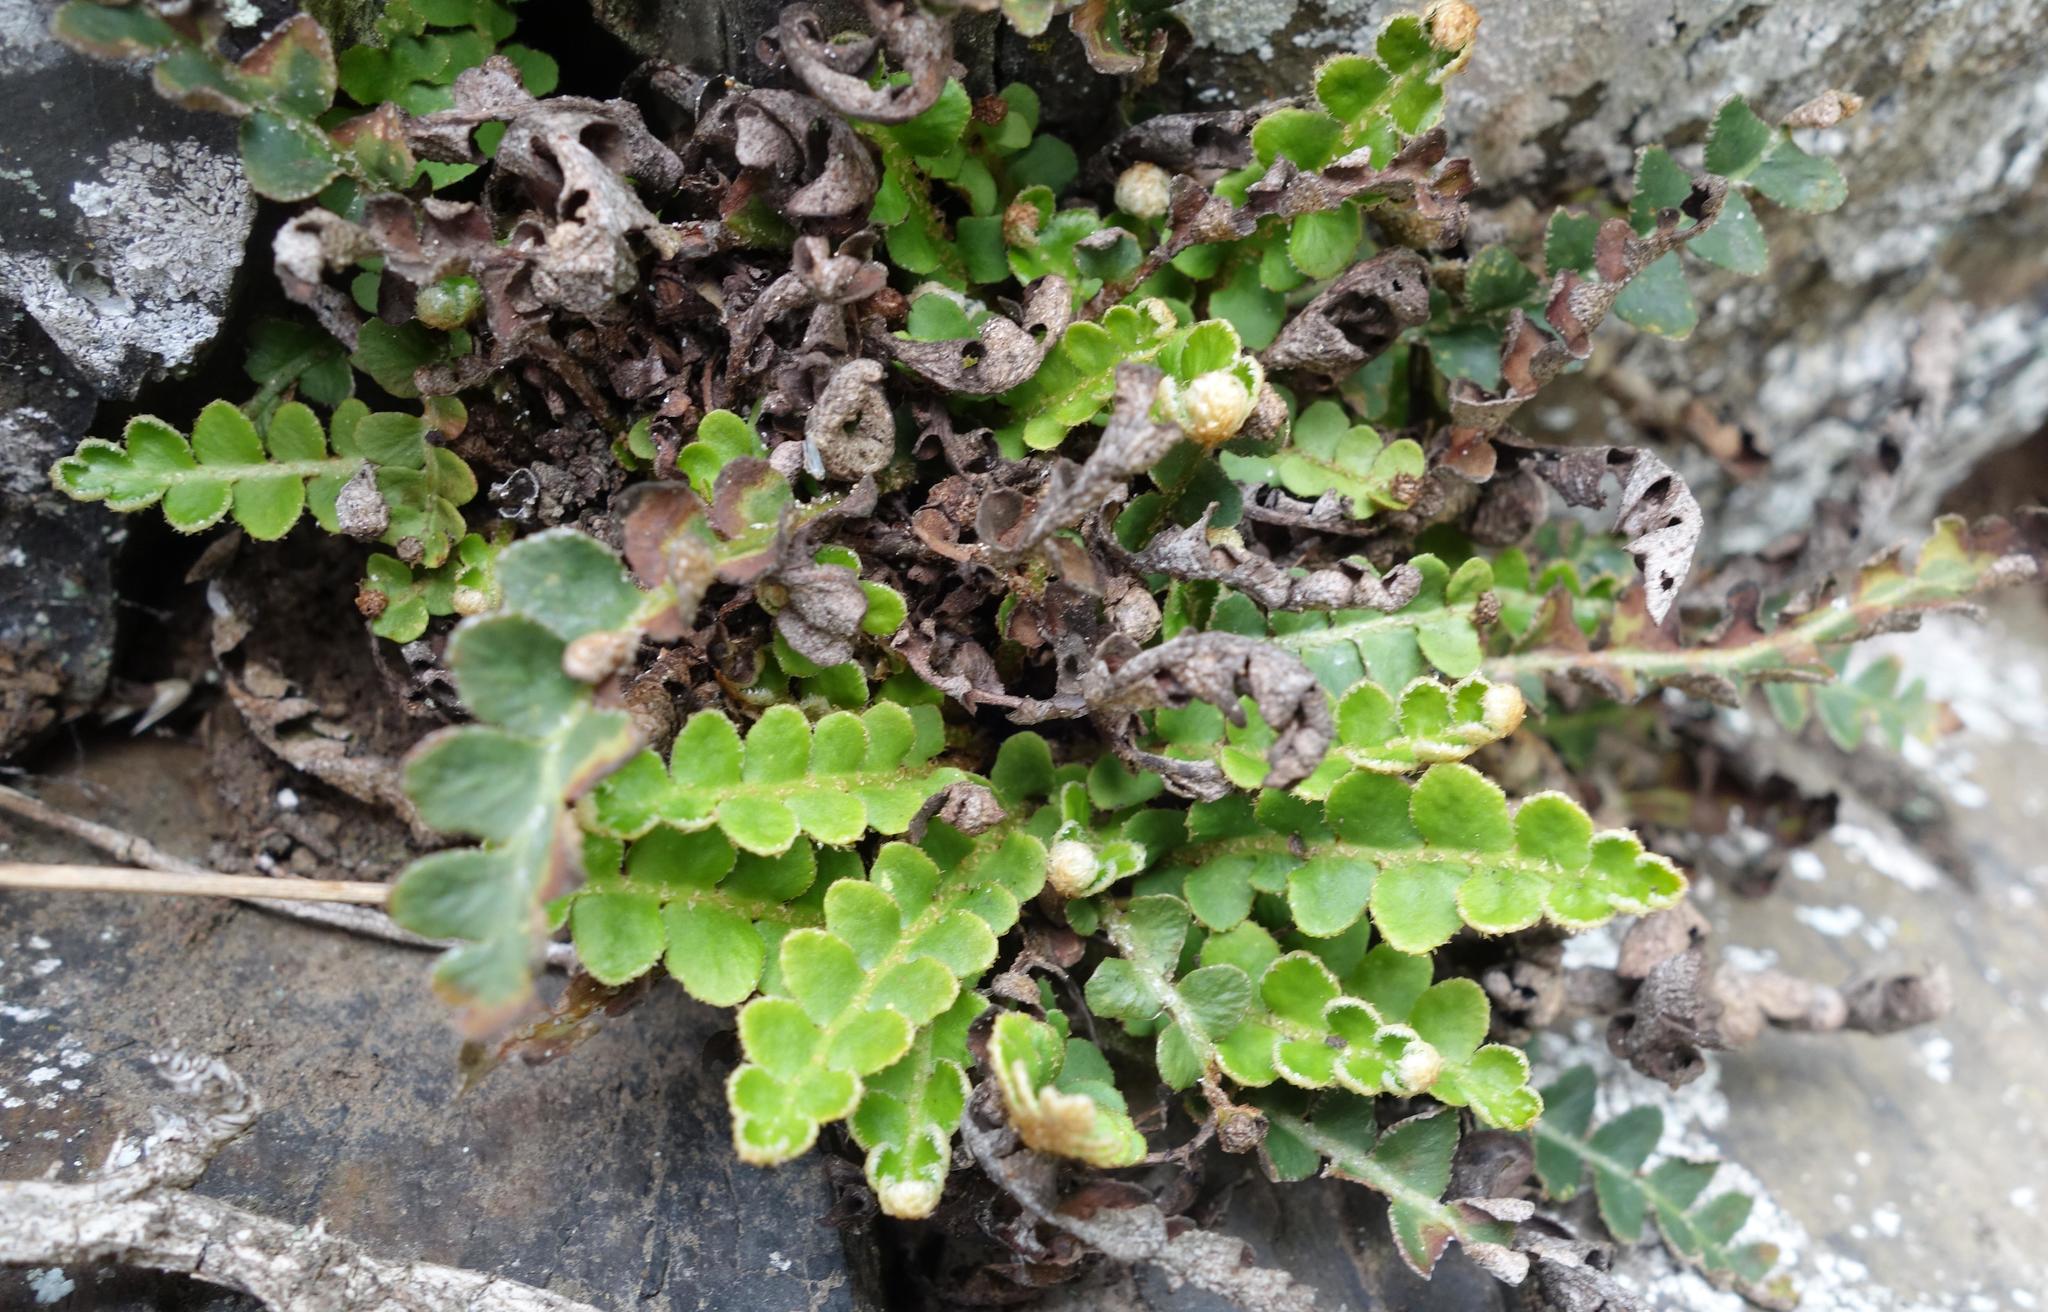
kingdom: Plantae
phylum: Tracheophyta
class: Polypodiopsida
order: Polypodiales
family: Aspleniaceae
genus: Asplenium
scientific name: Asplenium ceterach
